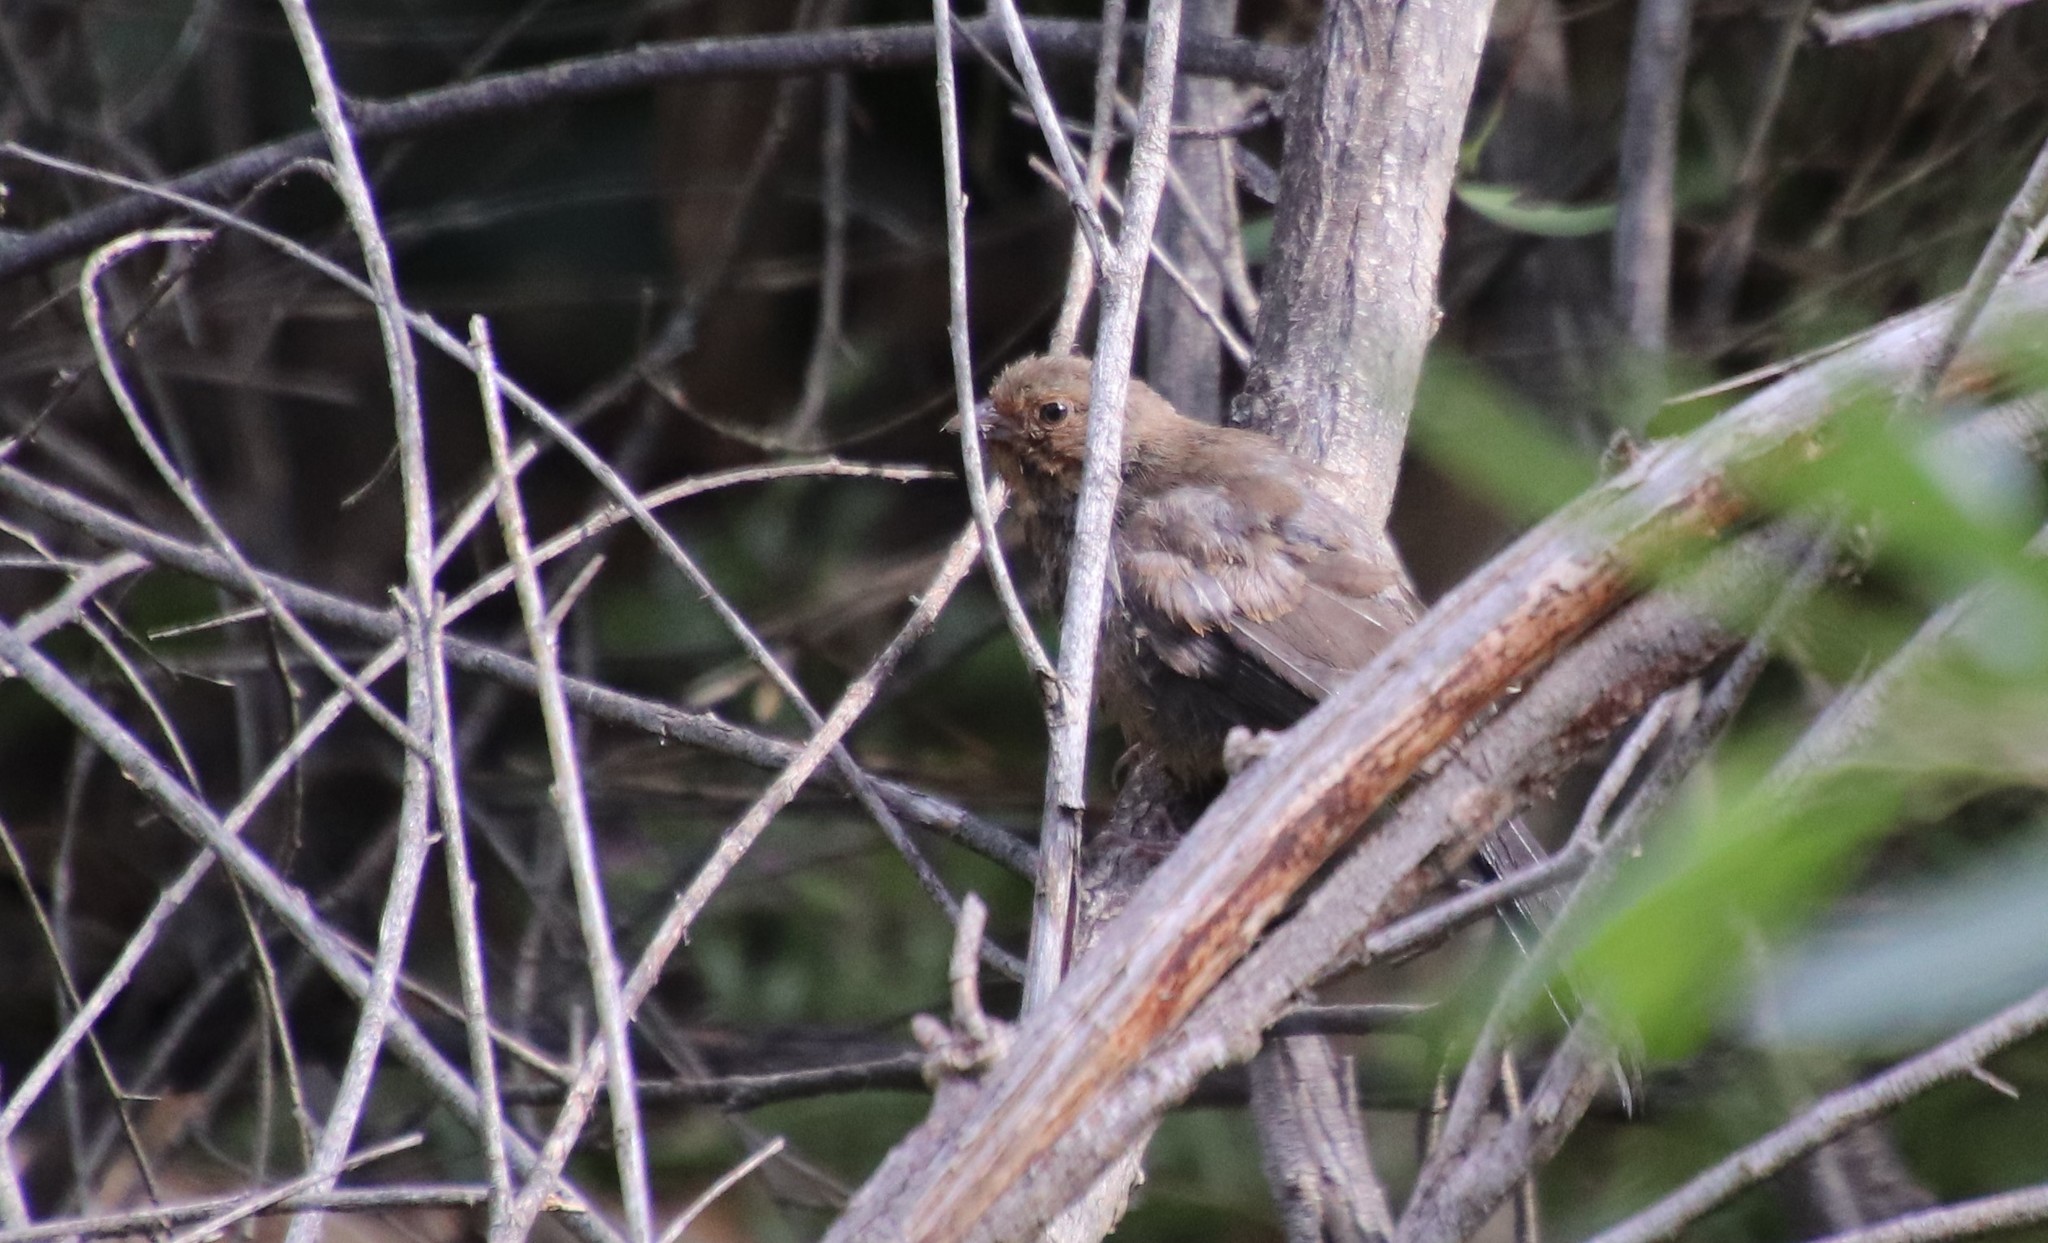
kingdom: Animalia
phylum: Chordata
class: Aves
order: Passeriformes
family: Passerellidae
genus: Melozone
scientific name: Melozone crissalis
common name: California towhee
